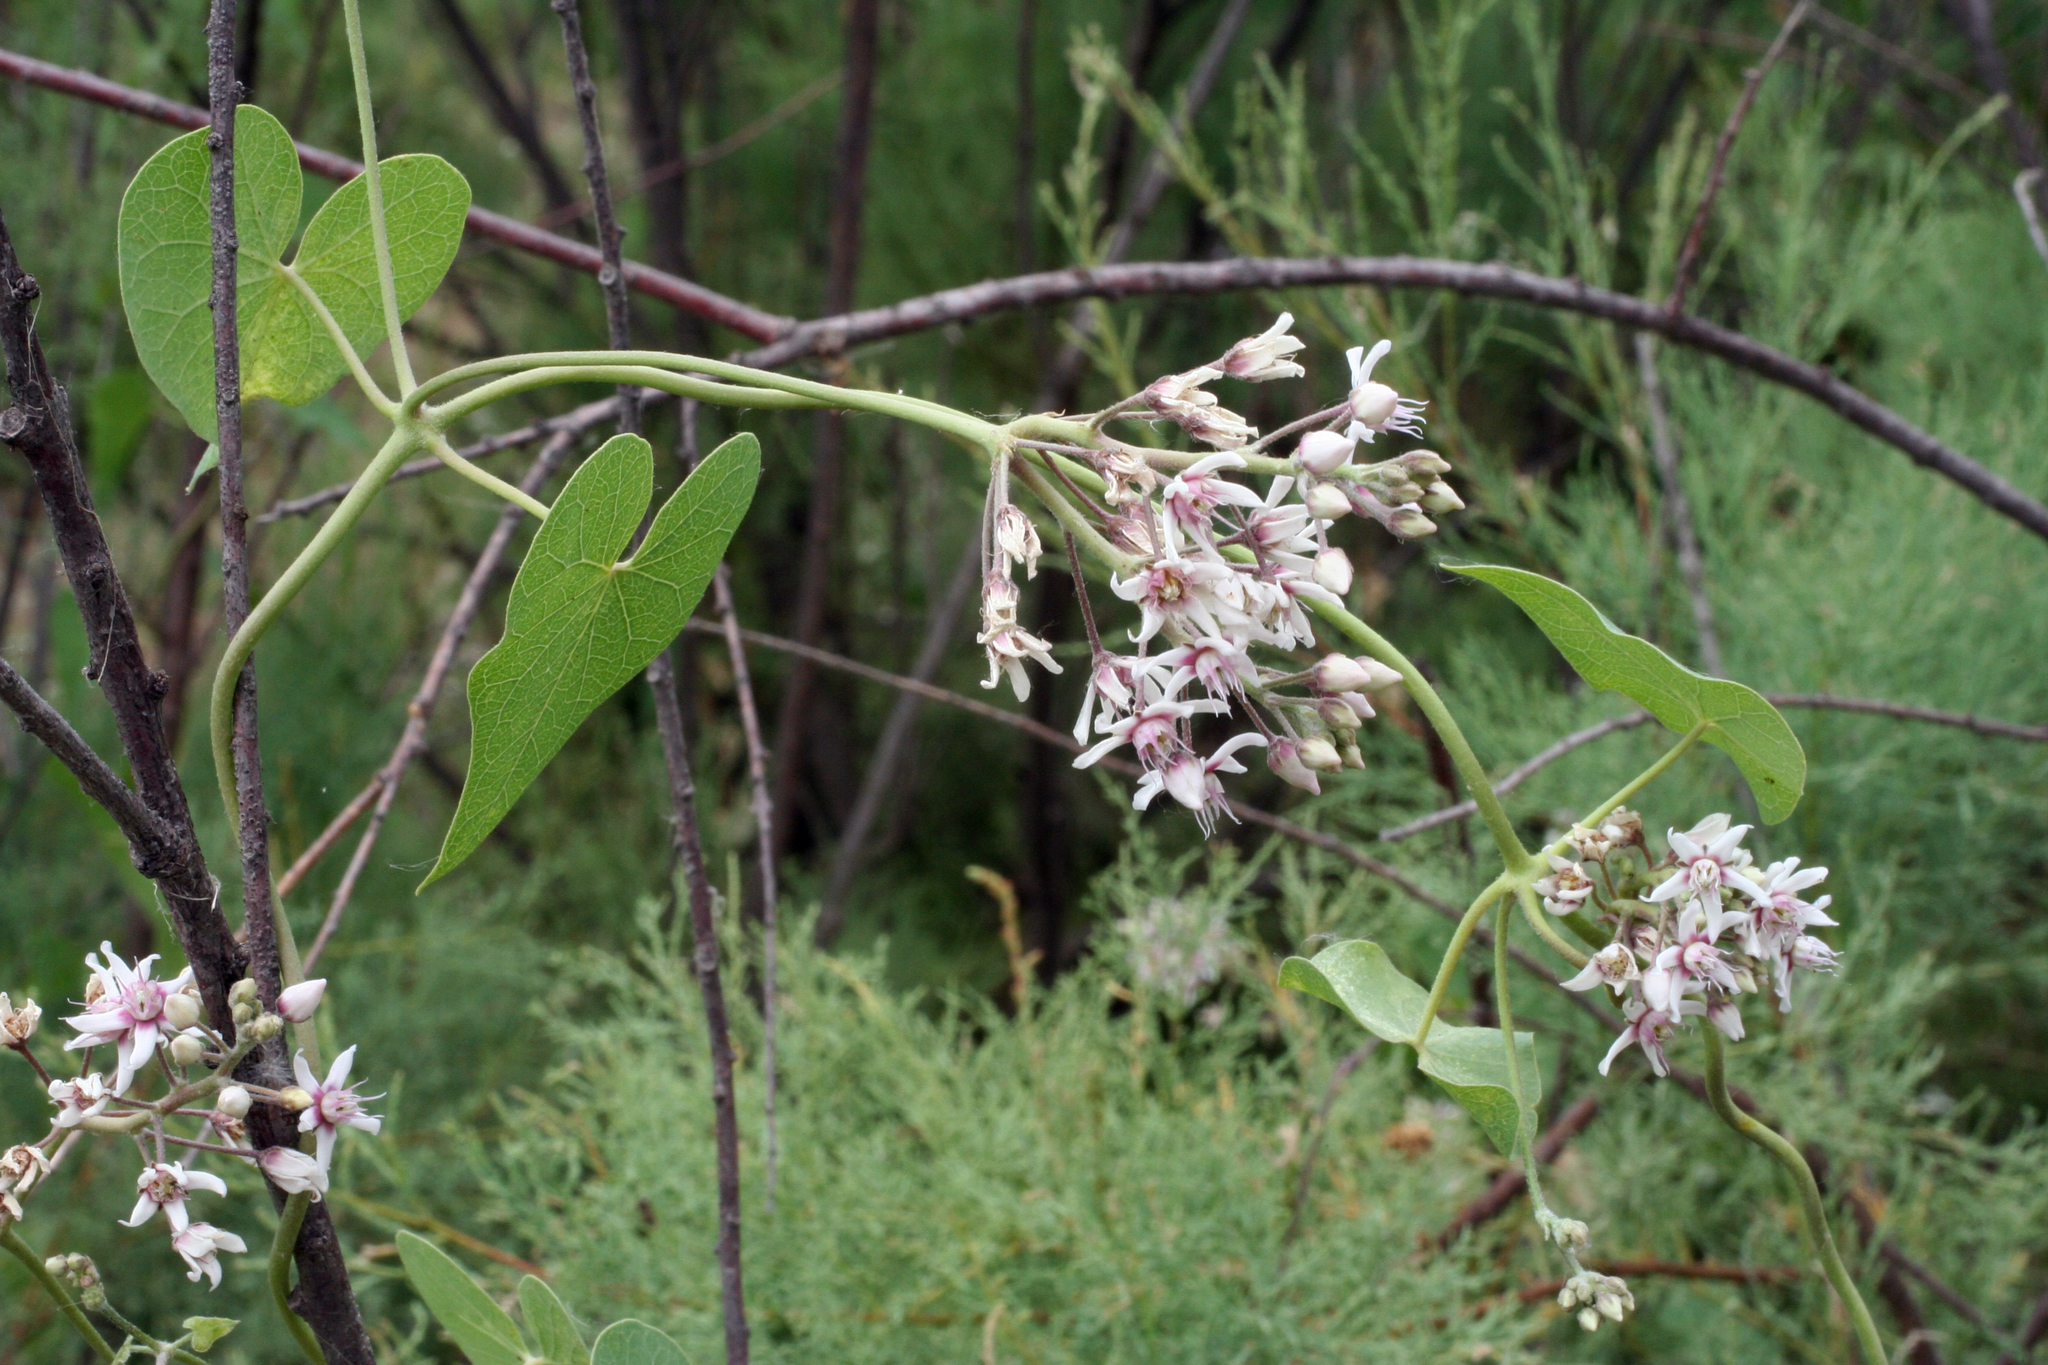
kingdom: Plantae
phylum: Tracheophyta
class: Magnoliopsida
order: Gentianales
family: Apocynaceae
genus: Cynanchum
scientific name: Cynanchum acutum
